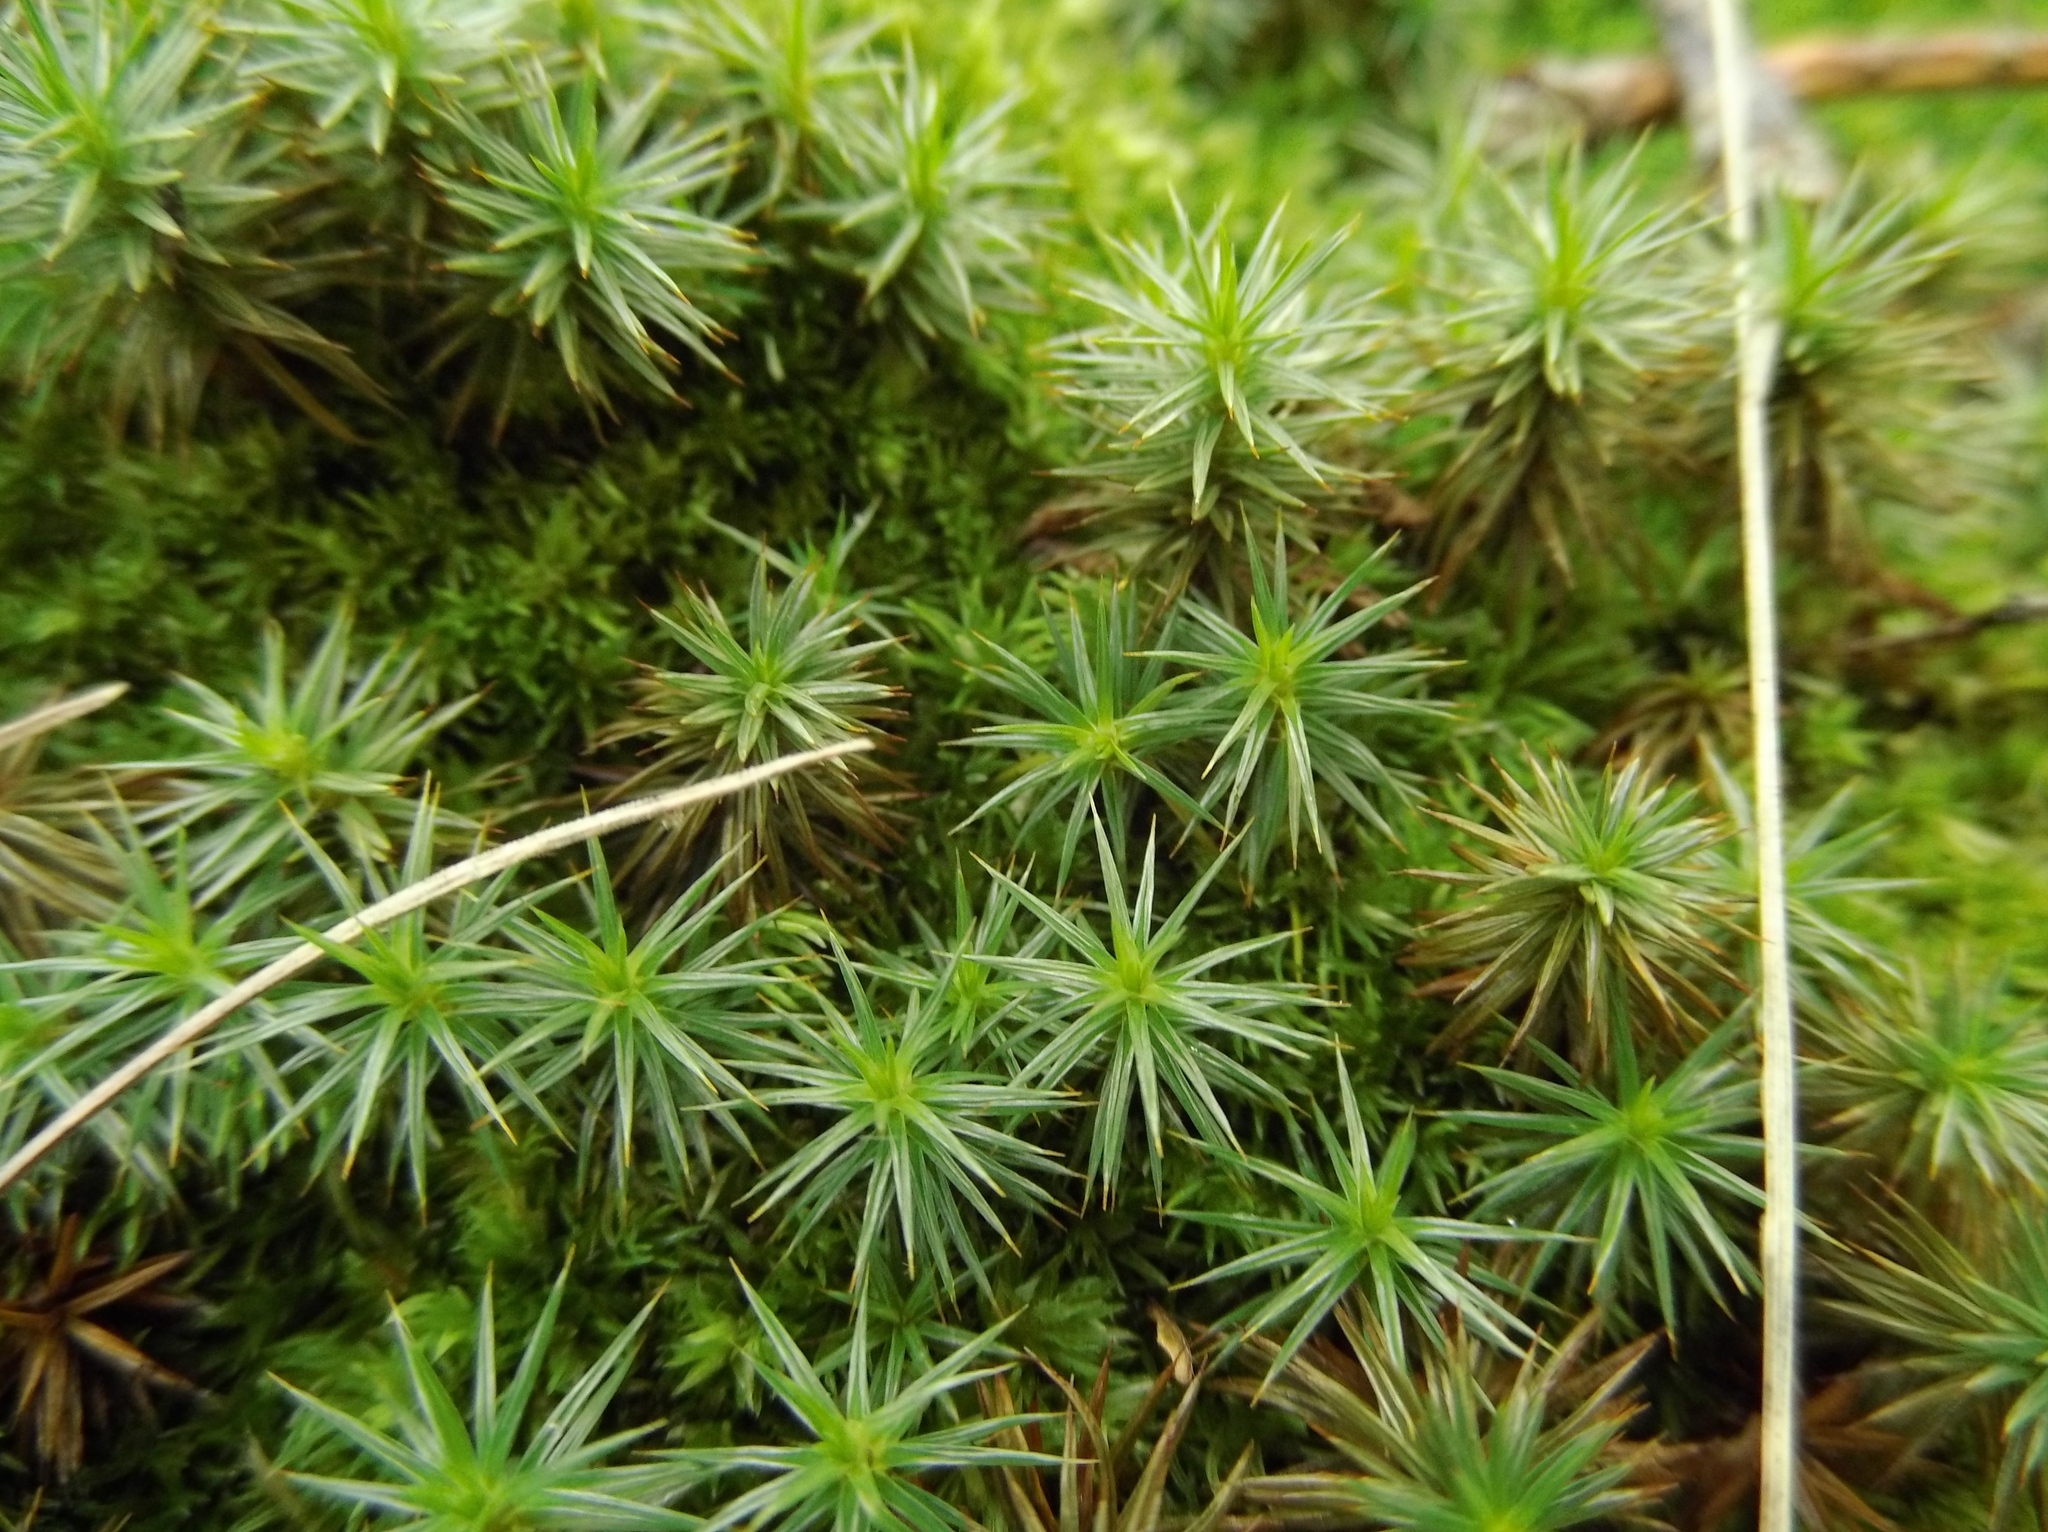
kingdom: Plantae
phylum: Bryophyta
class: Polytrichopsida
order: Polytrichales
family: Polytrichaceae
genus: Polytrichum
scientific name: Polytrichum juniperinum
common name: Juniper haircap moss
